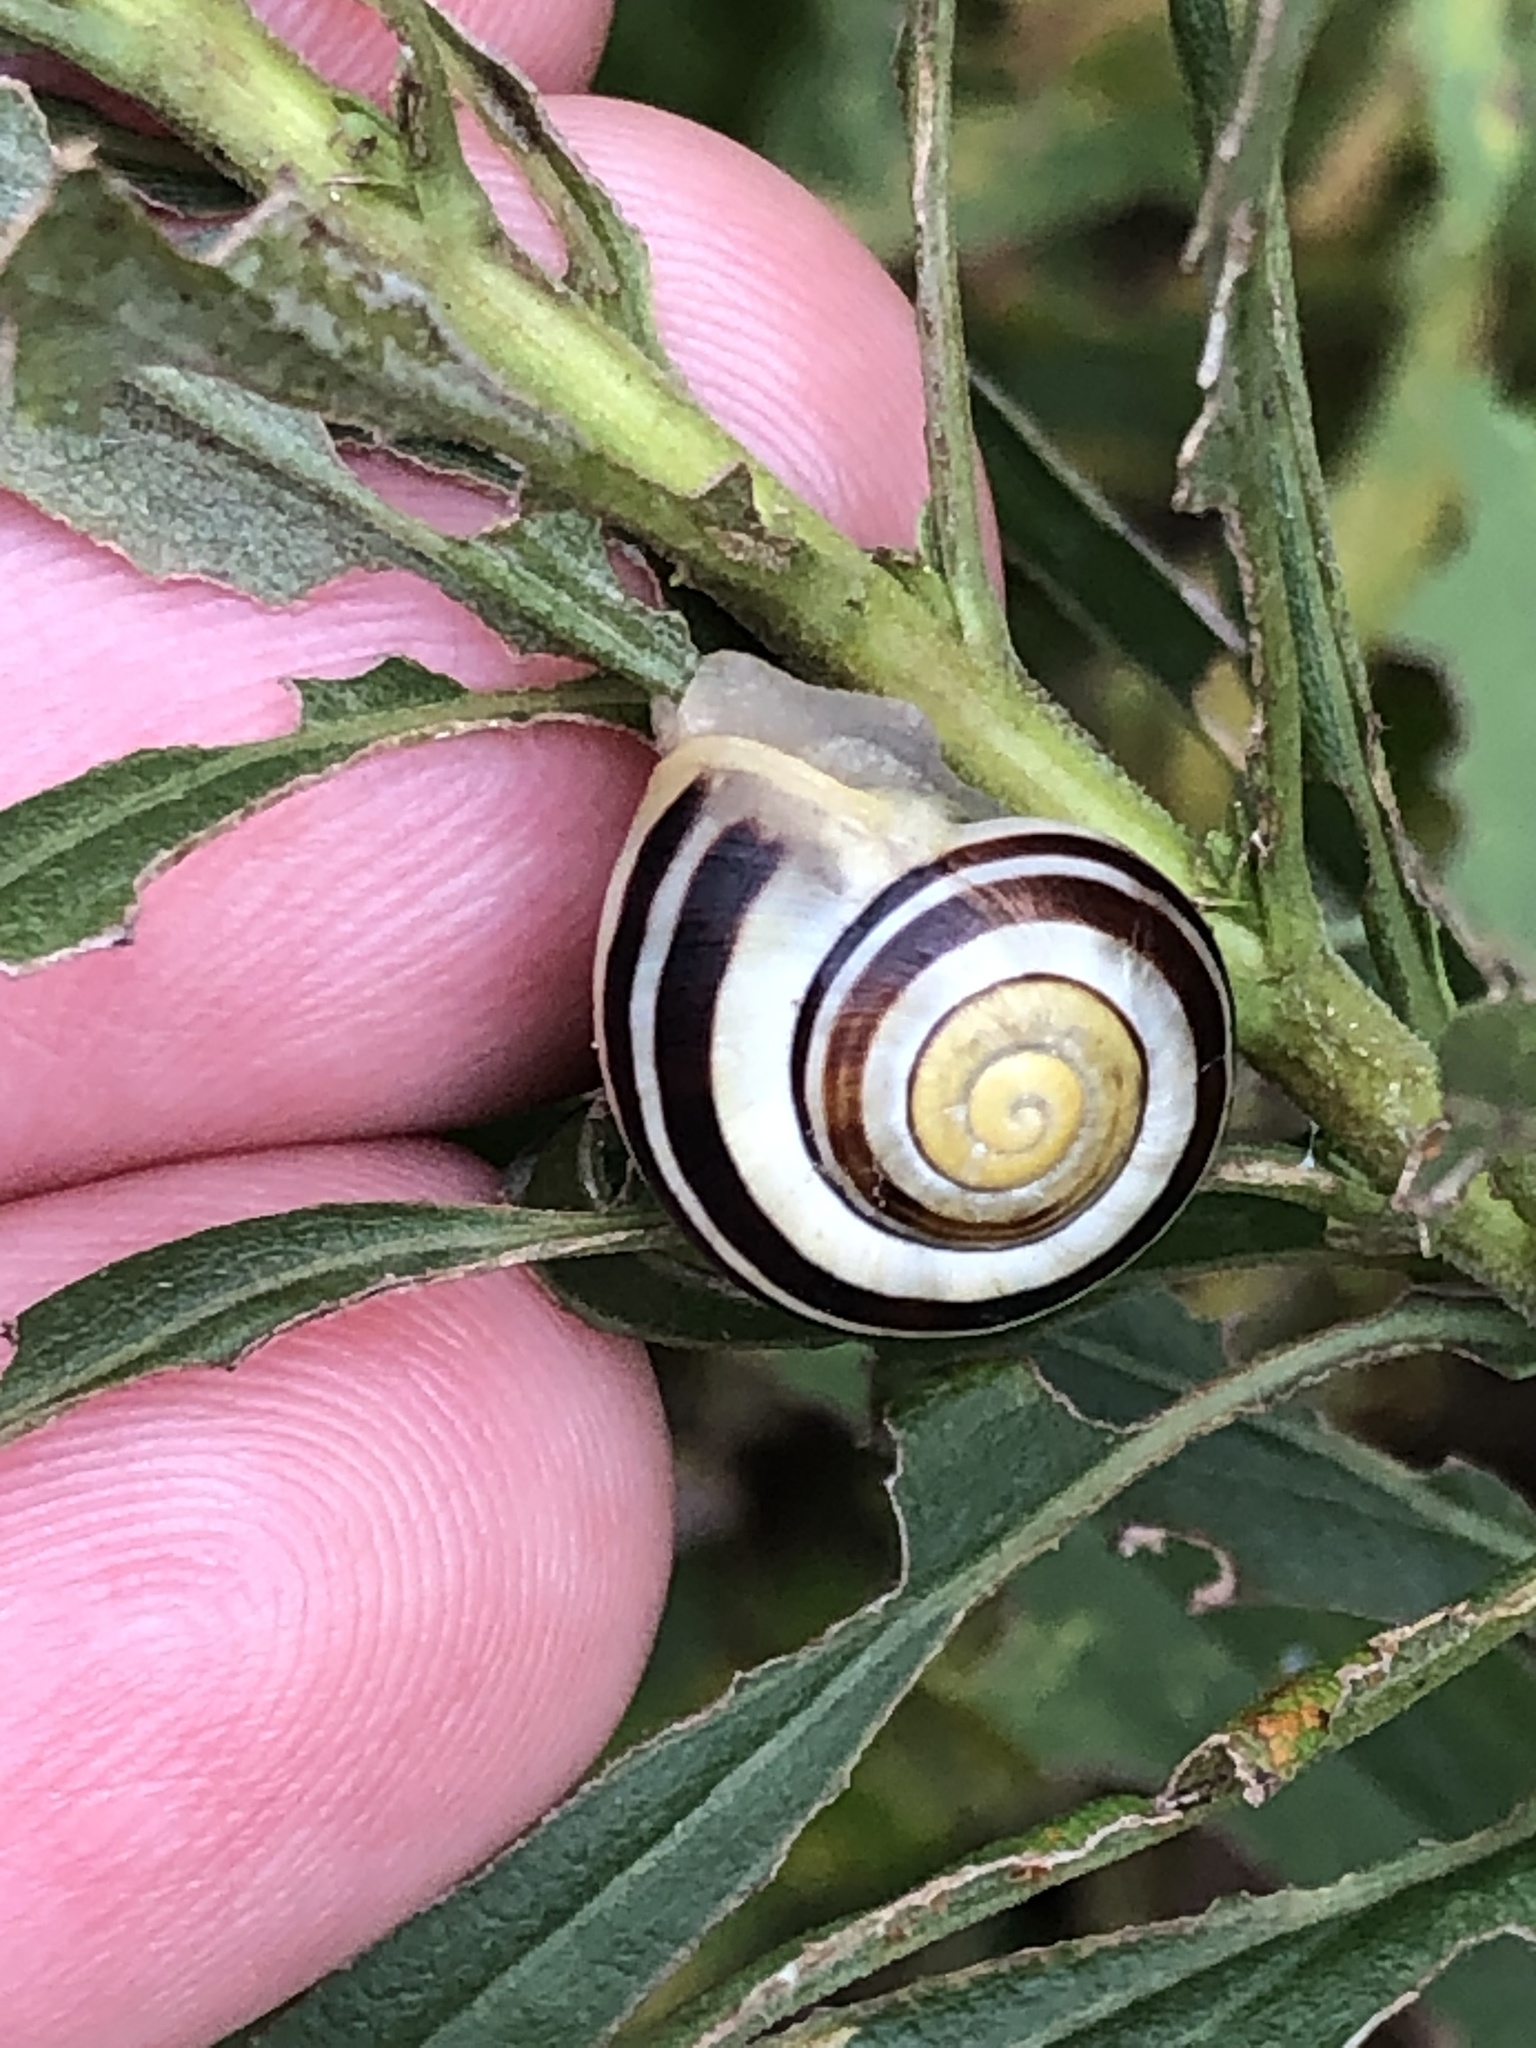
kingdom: Animalia
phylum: Mollusca
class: Gastropoda
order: Stylommatophora
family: Helicidae
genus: Cepaea
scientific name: Cepaea
